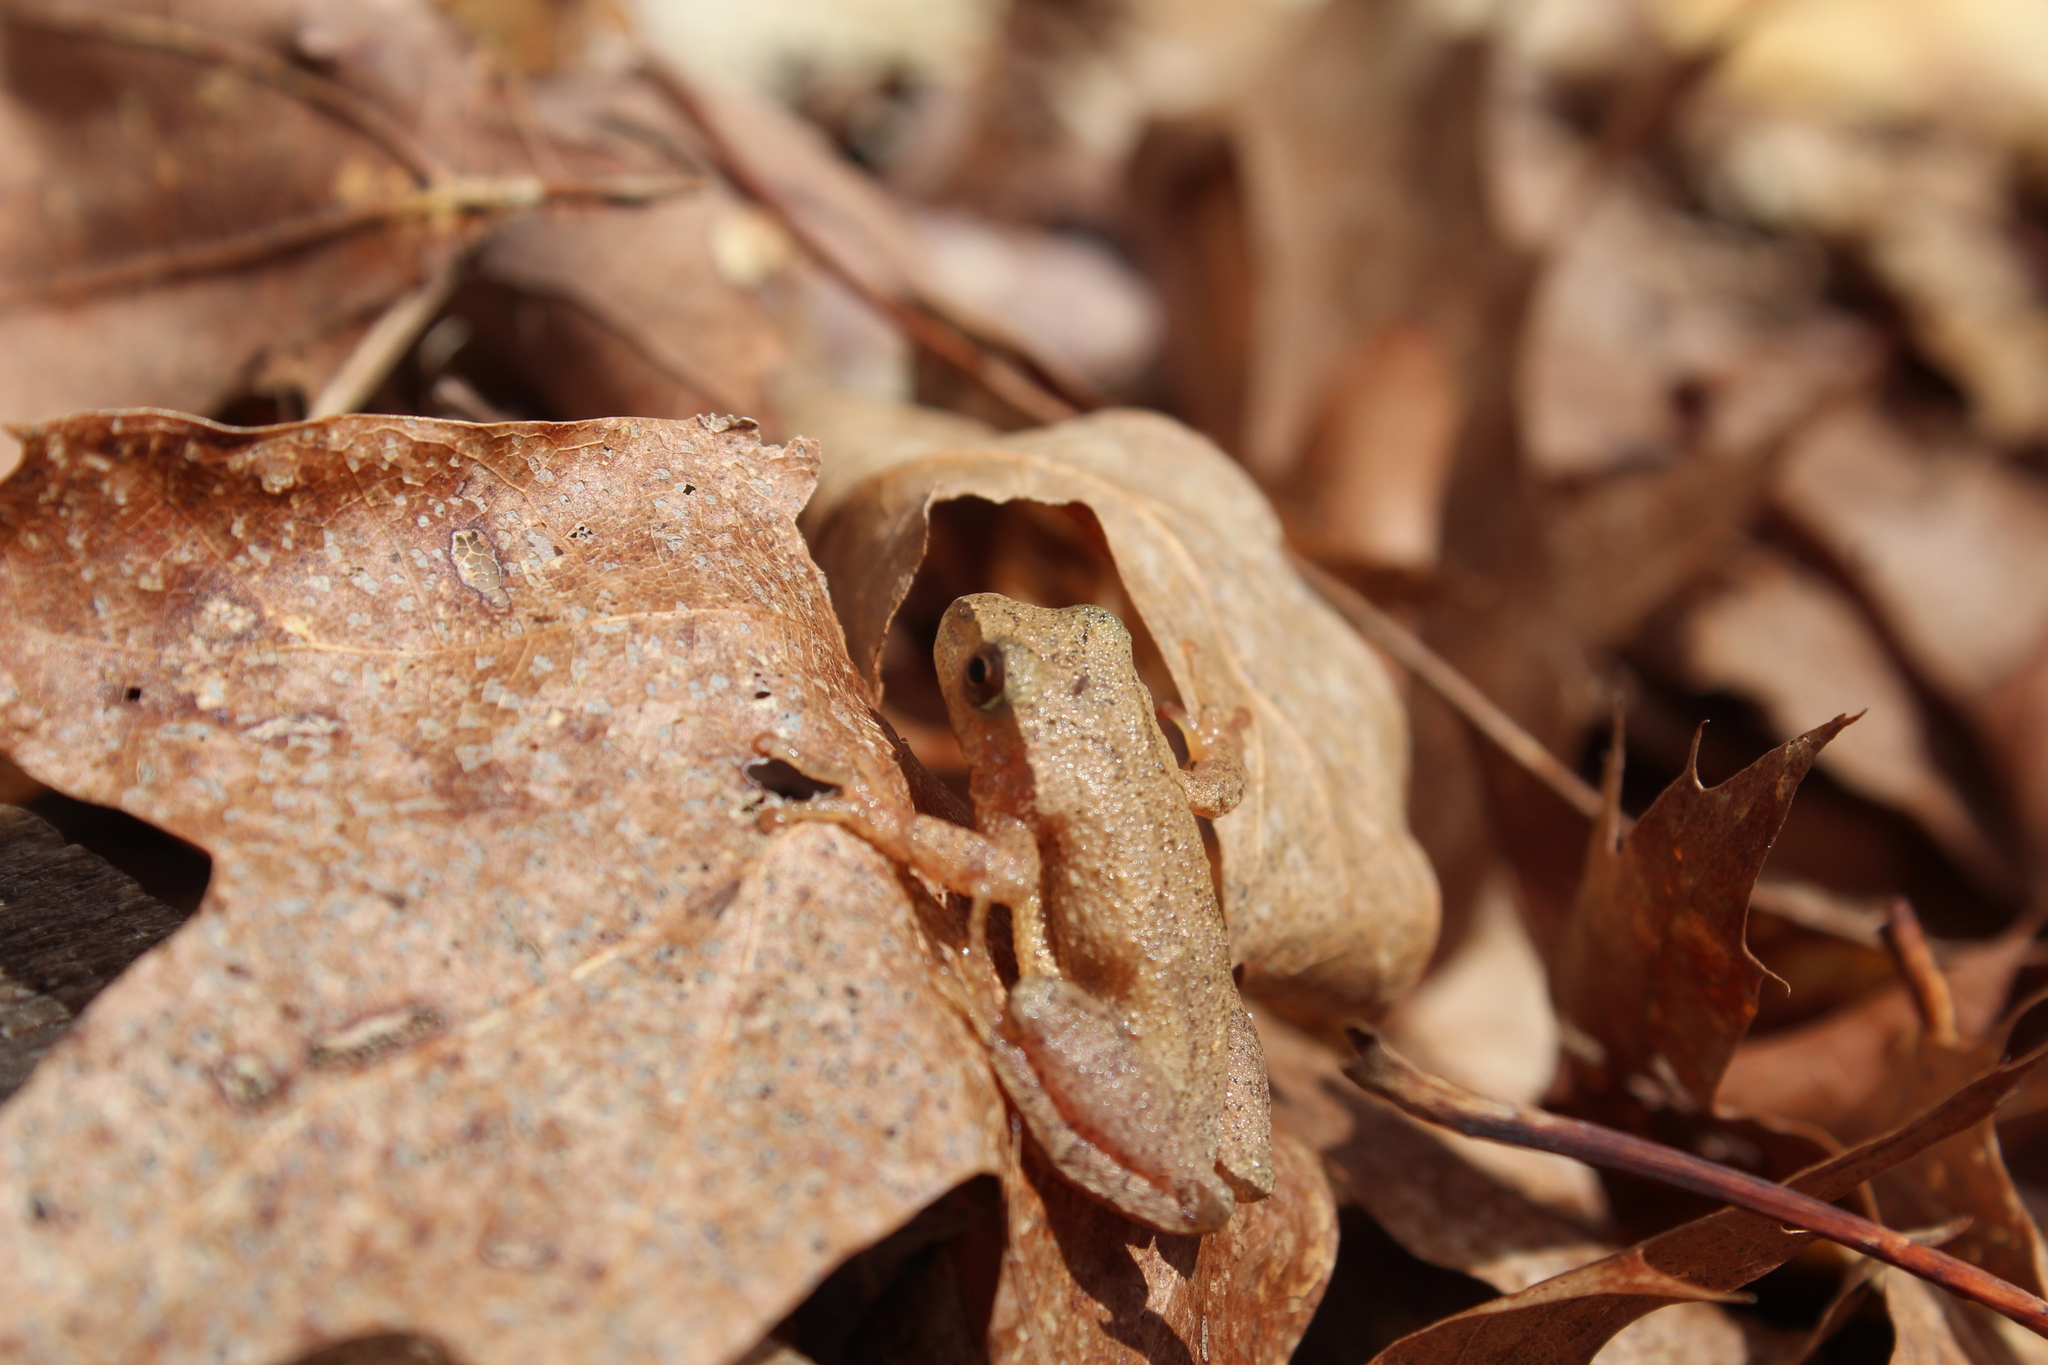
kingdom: Animalia
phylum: Chordata
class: Amphibia
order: Anura
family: Hylidae
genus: Pseudacris
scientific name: Pseudacris crucifer
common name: Spring peeper
